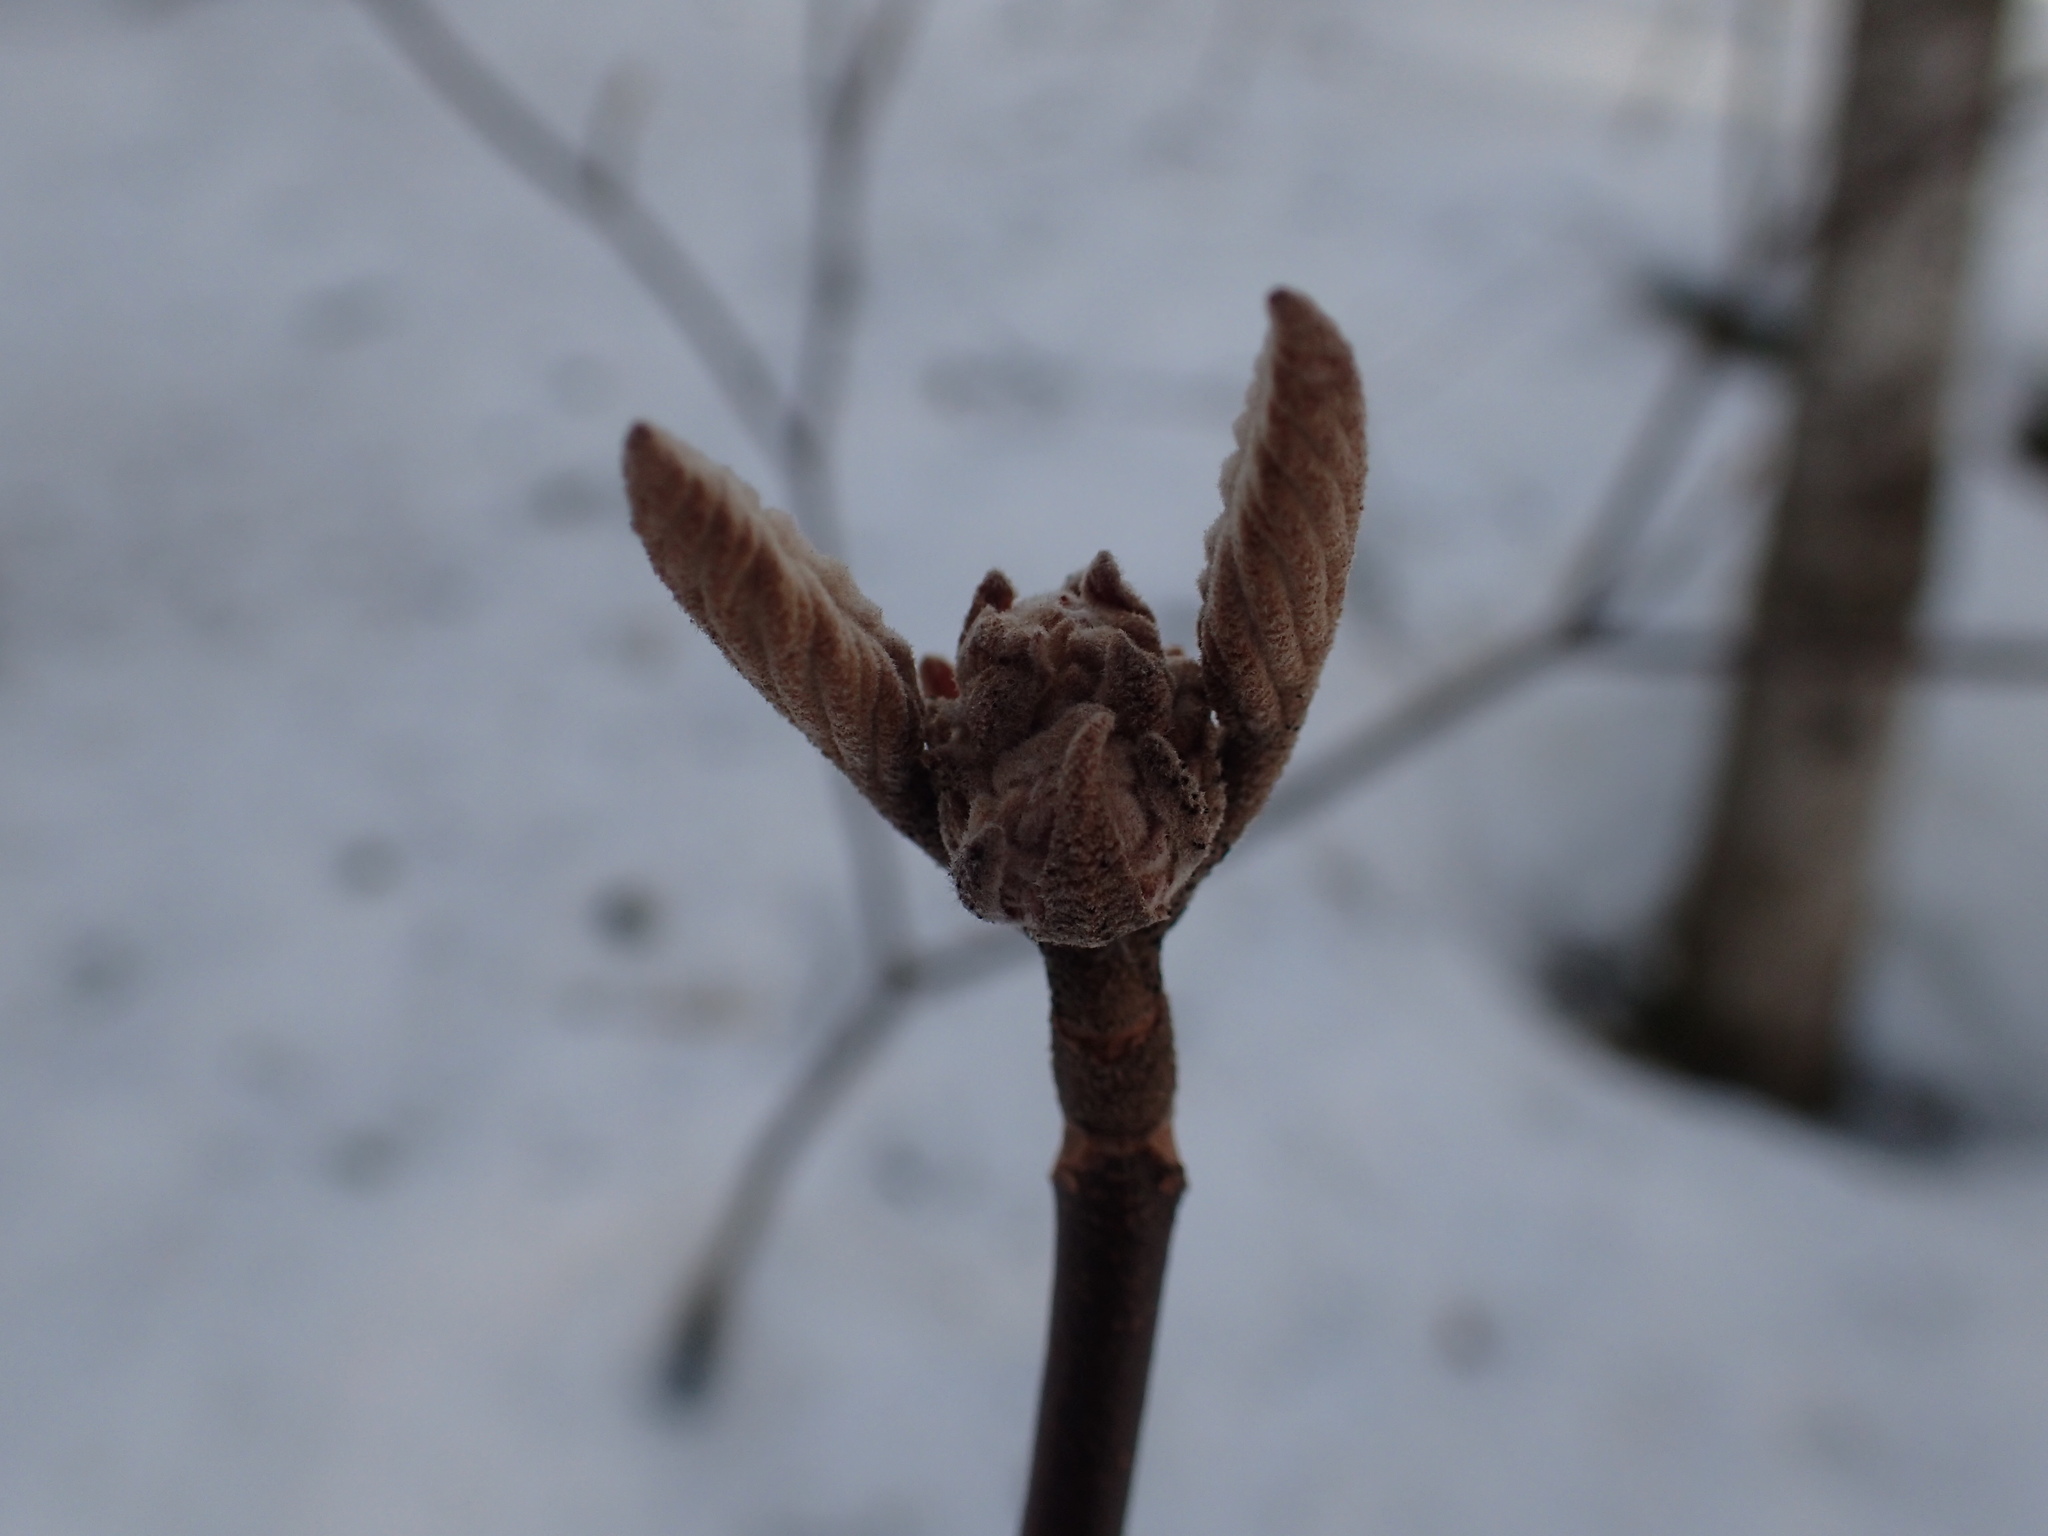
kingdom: Plantae
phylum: Tracheophyta
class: Magnoliopsida
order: Dipsacales
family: Viburnaceae
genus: Viburnum
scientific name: Viburnum lantanoides
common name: Hobblebush
